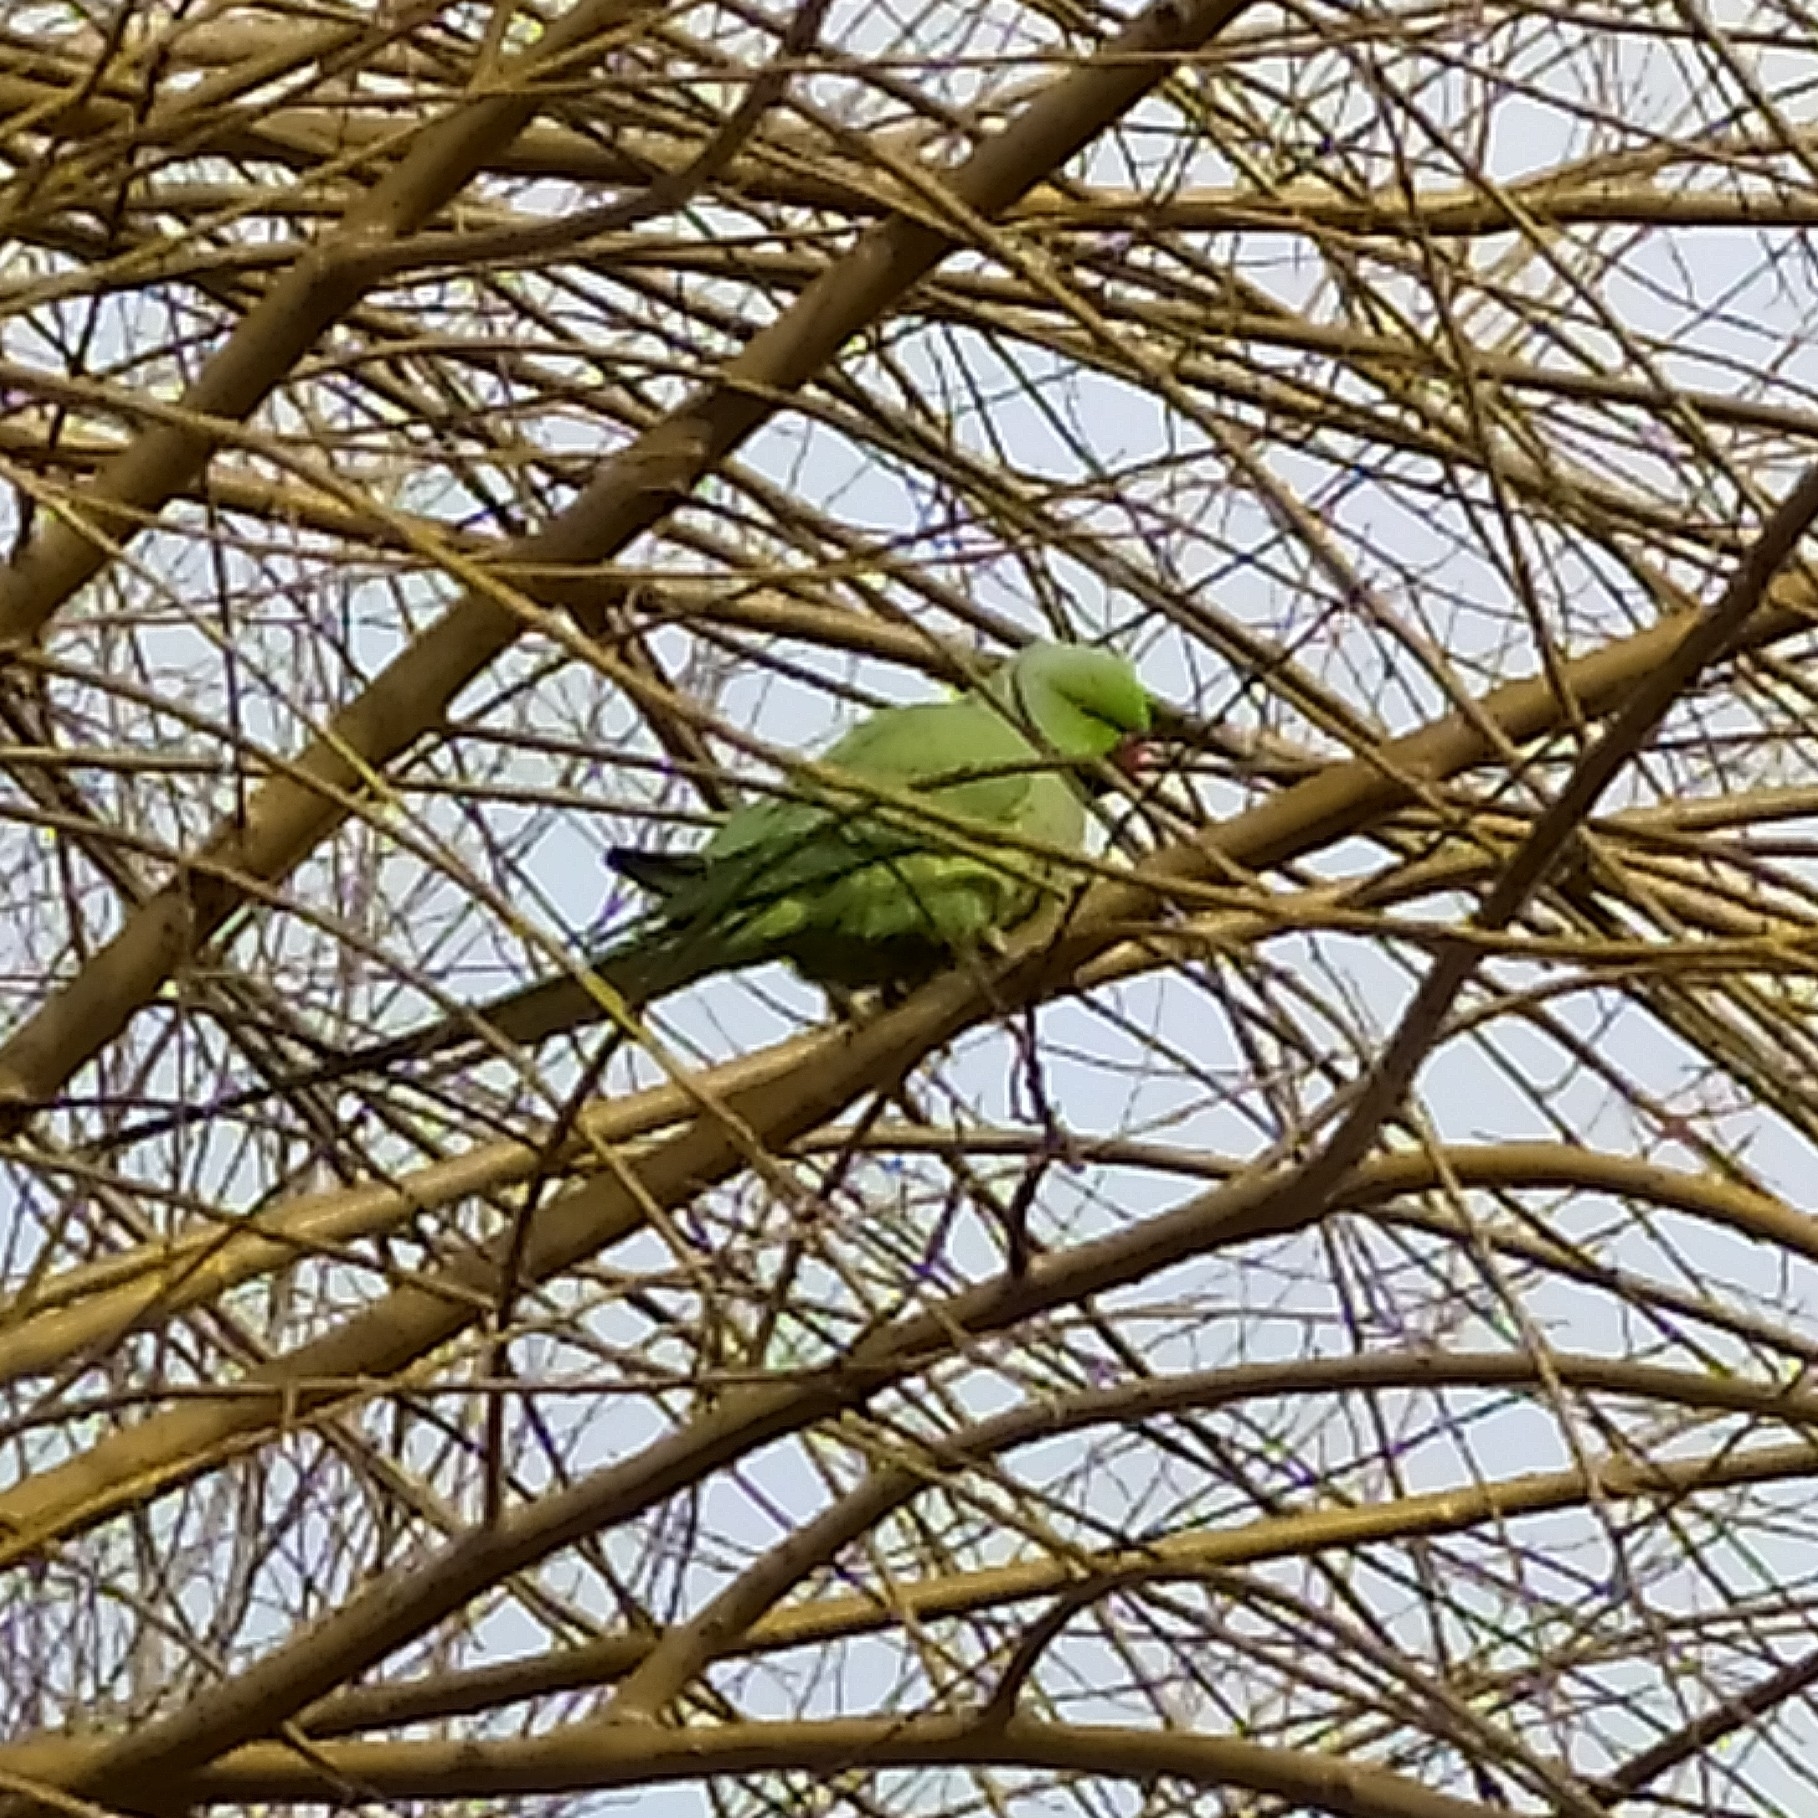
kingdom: Animalia
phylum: Chordata
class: Aves
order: Psittaciformes
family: Psittacidae
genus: Psittacula
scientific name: Psittacula krameri
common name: Rose-ringed parakeet
